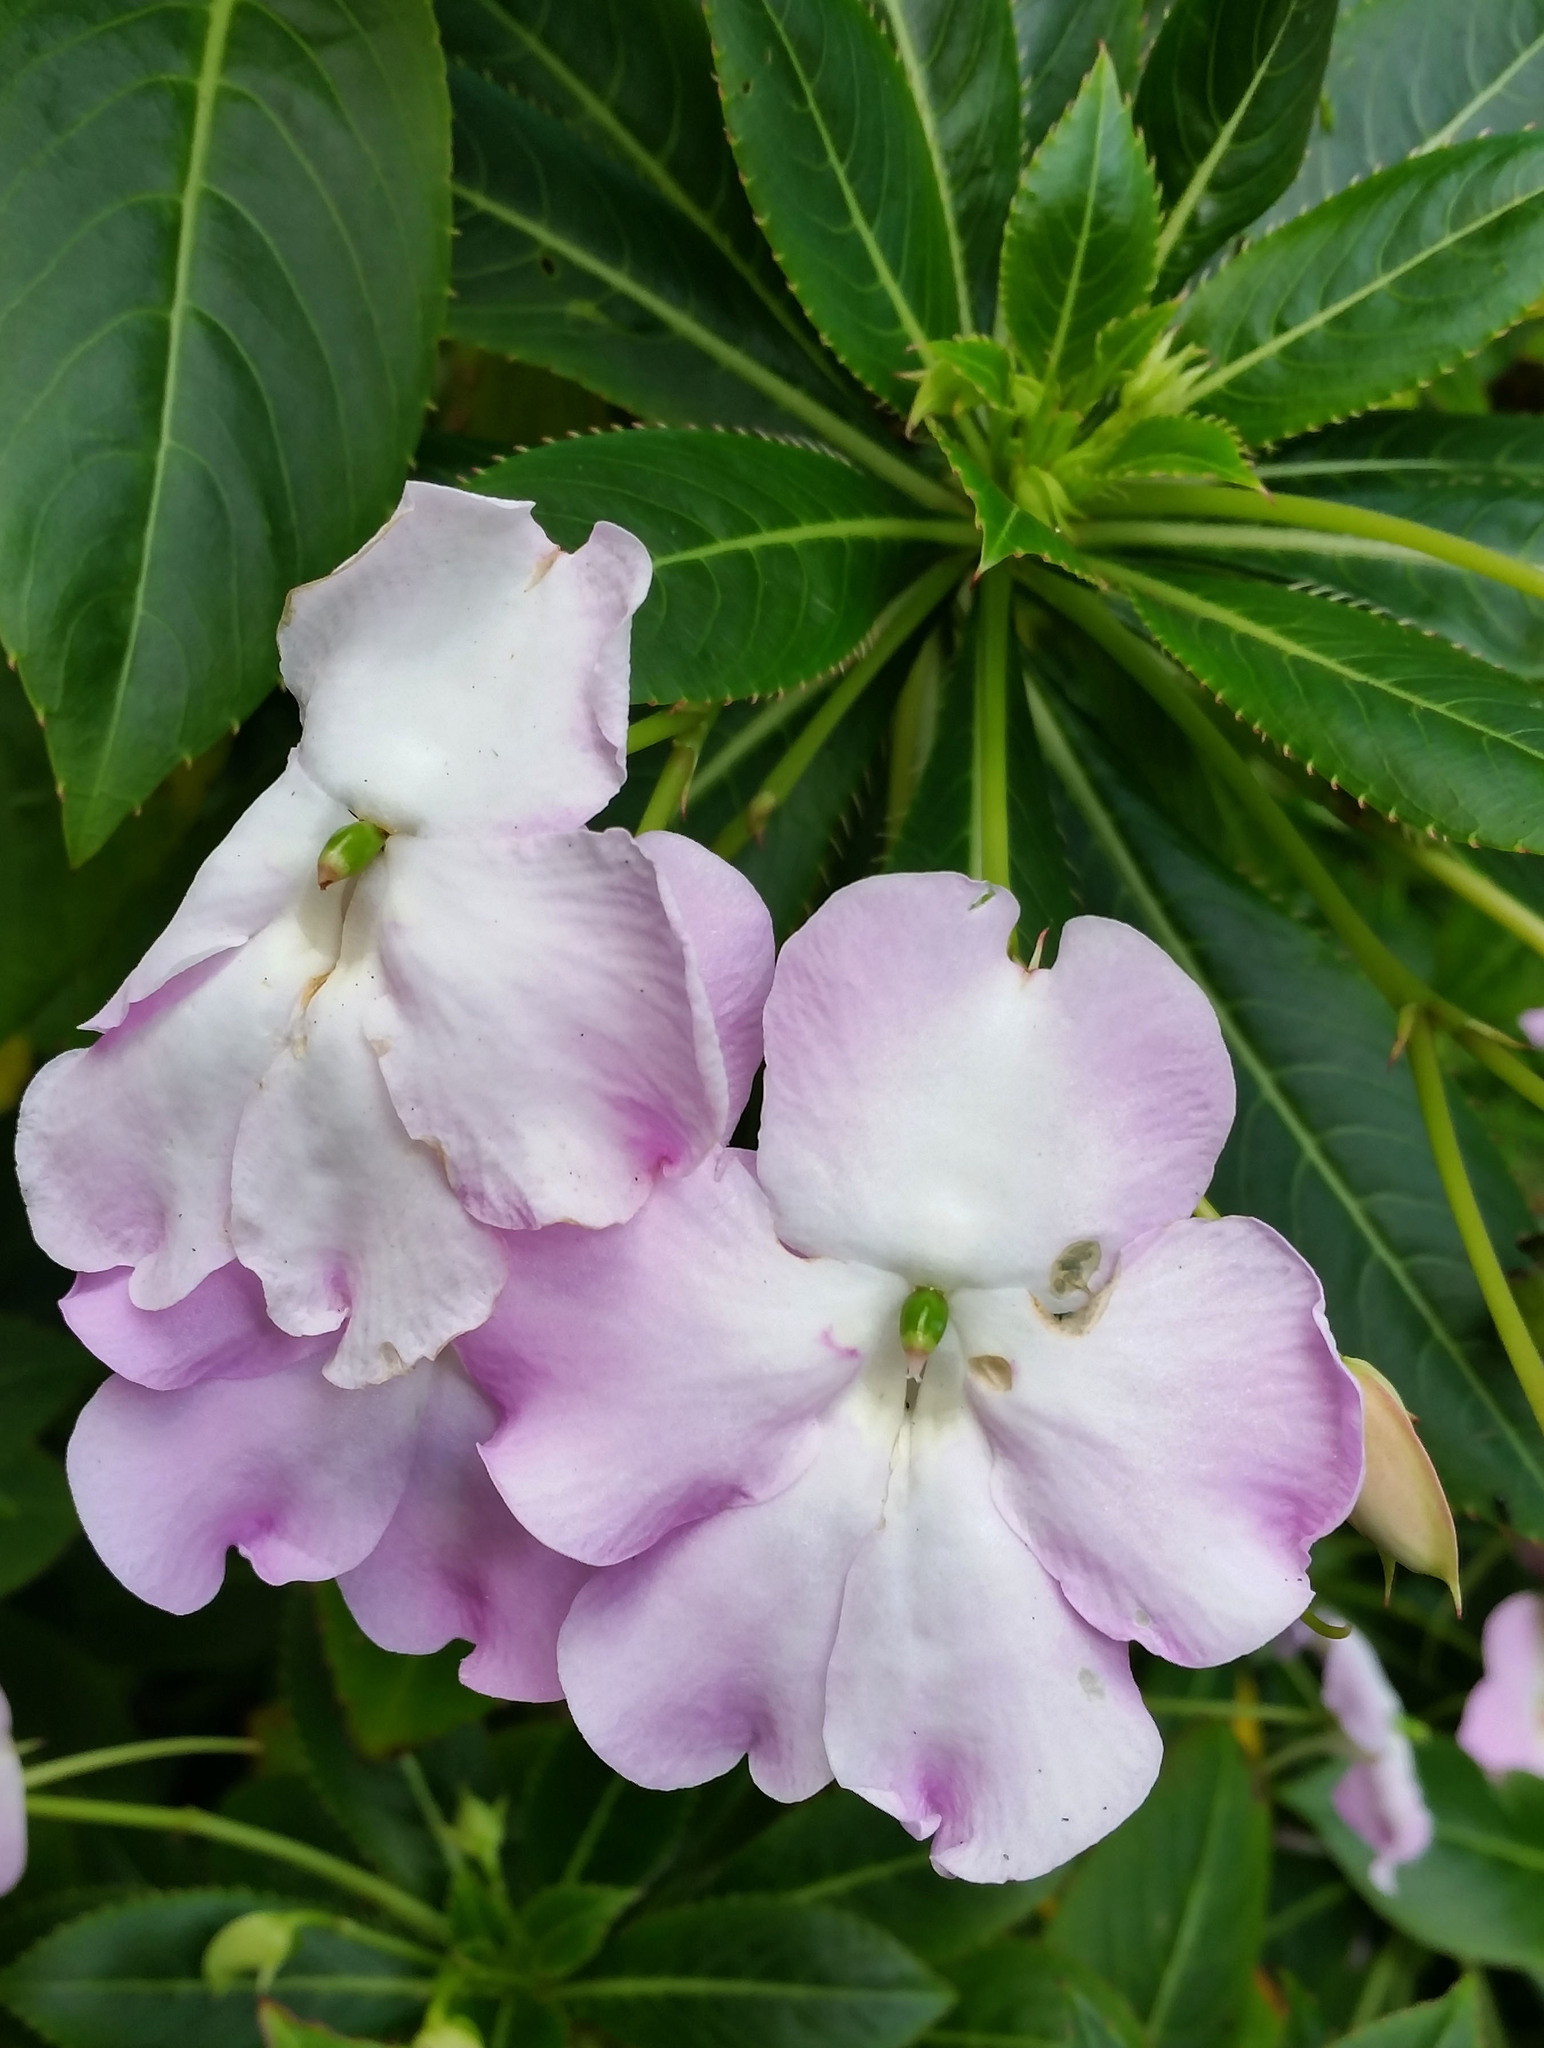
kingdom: Plantae
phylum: Tracheophyta
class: Magnoliopsida
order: Ericales
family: Balsaminaceae
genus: Impatiens
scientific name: Impatiens sodenii
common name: Oliver's touch-me-not
